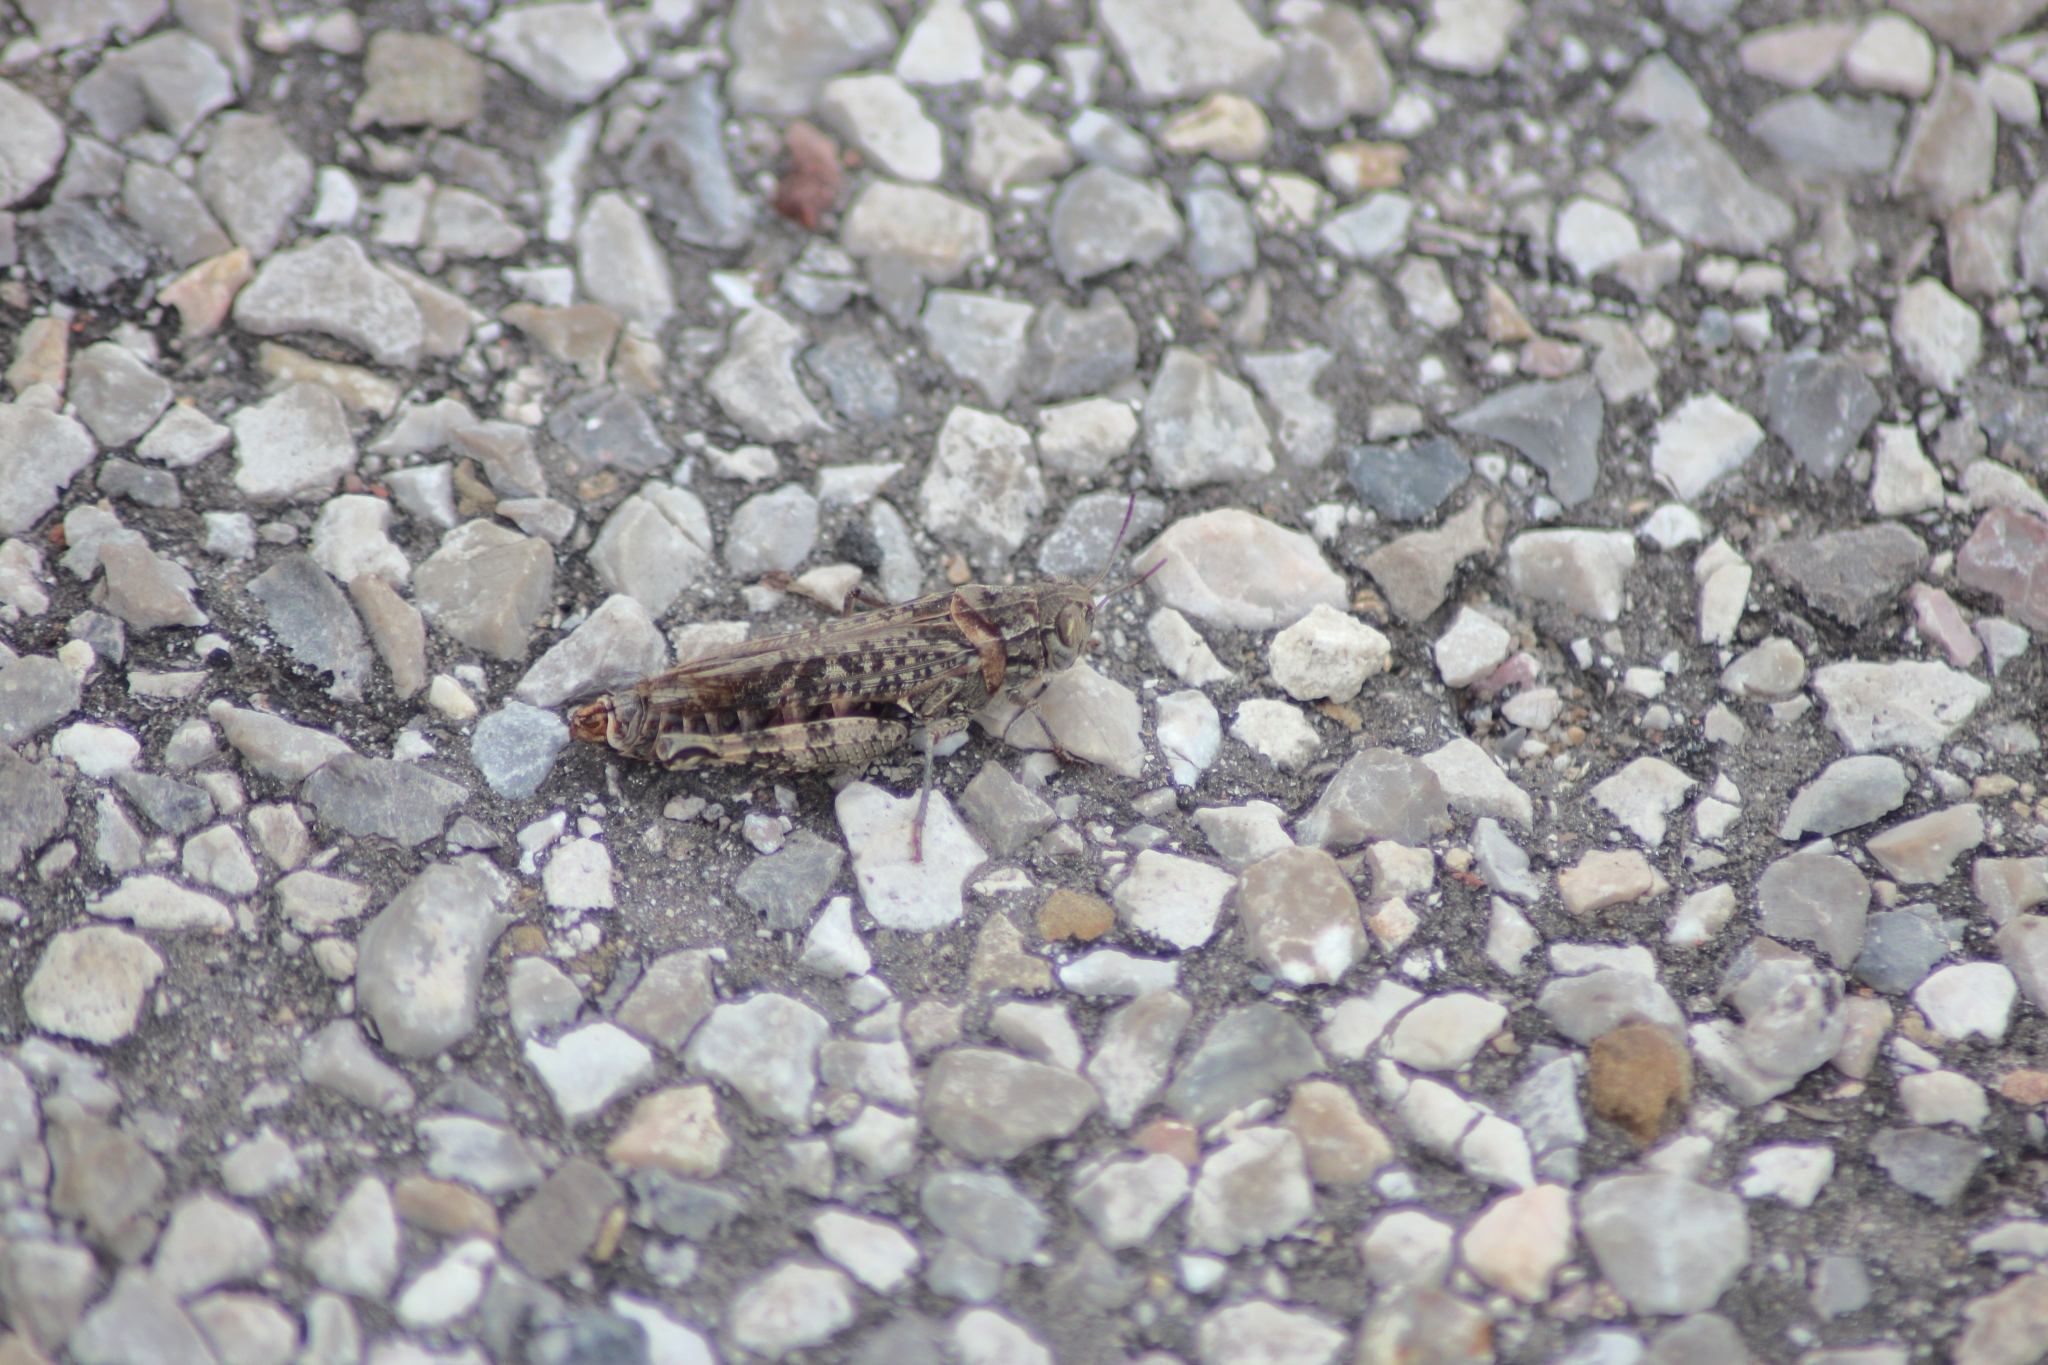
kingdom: Animalia
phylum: Arthropoda
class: Insecta
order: Orthoptera
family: Acrididae
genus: Calliptamus
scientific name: Calliptamus italicus
